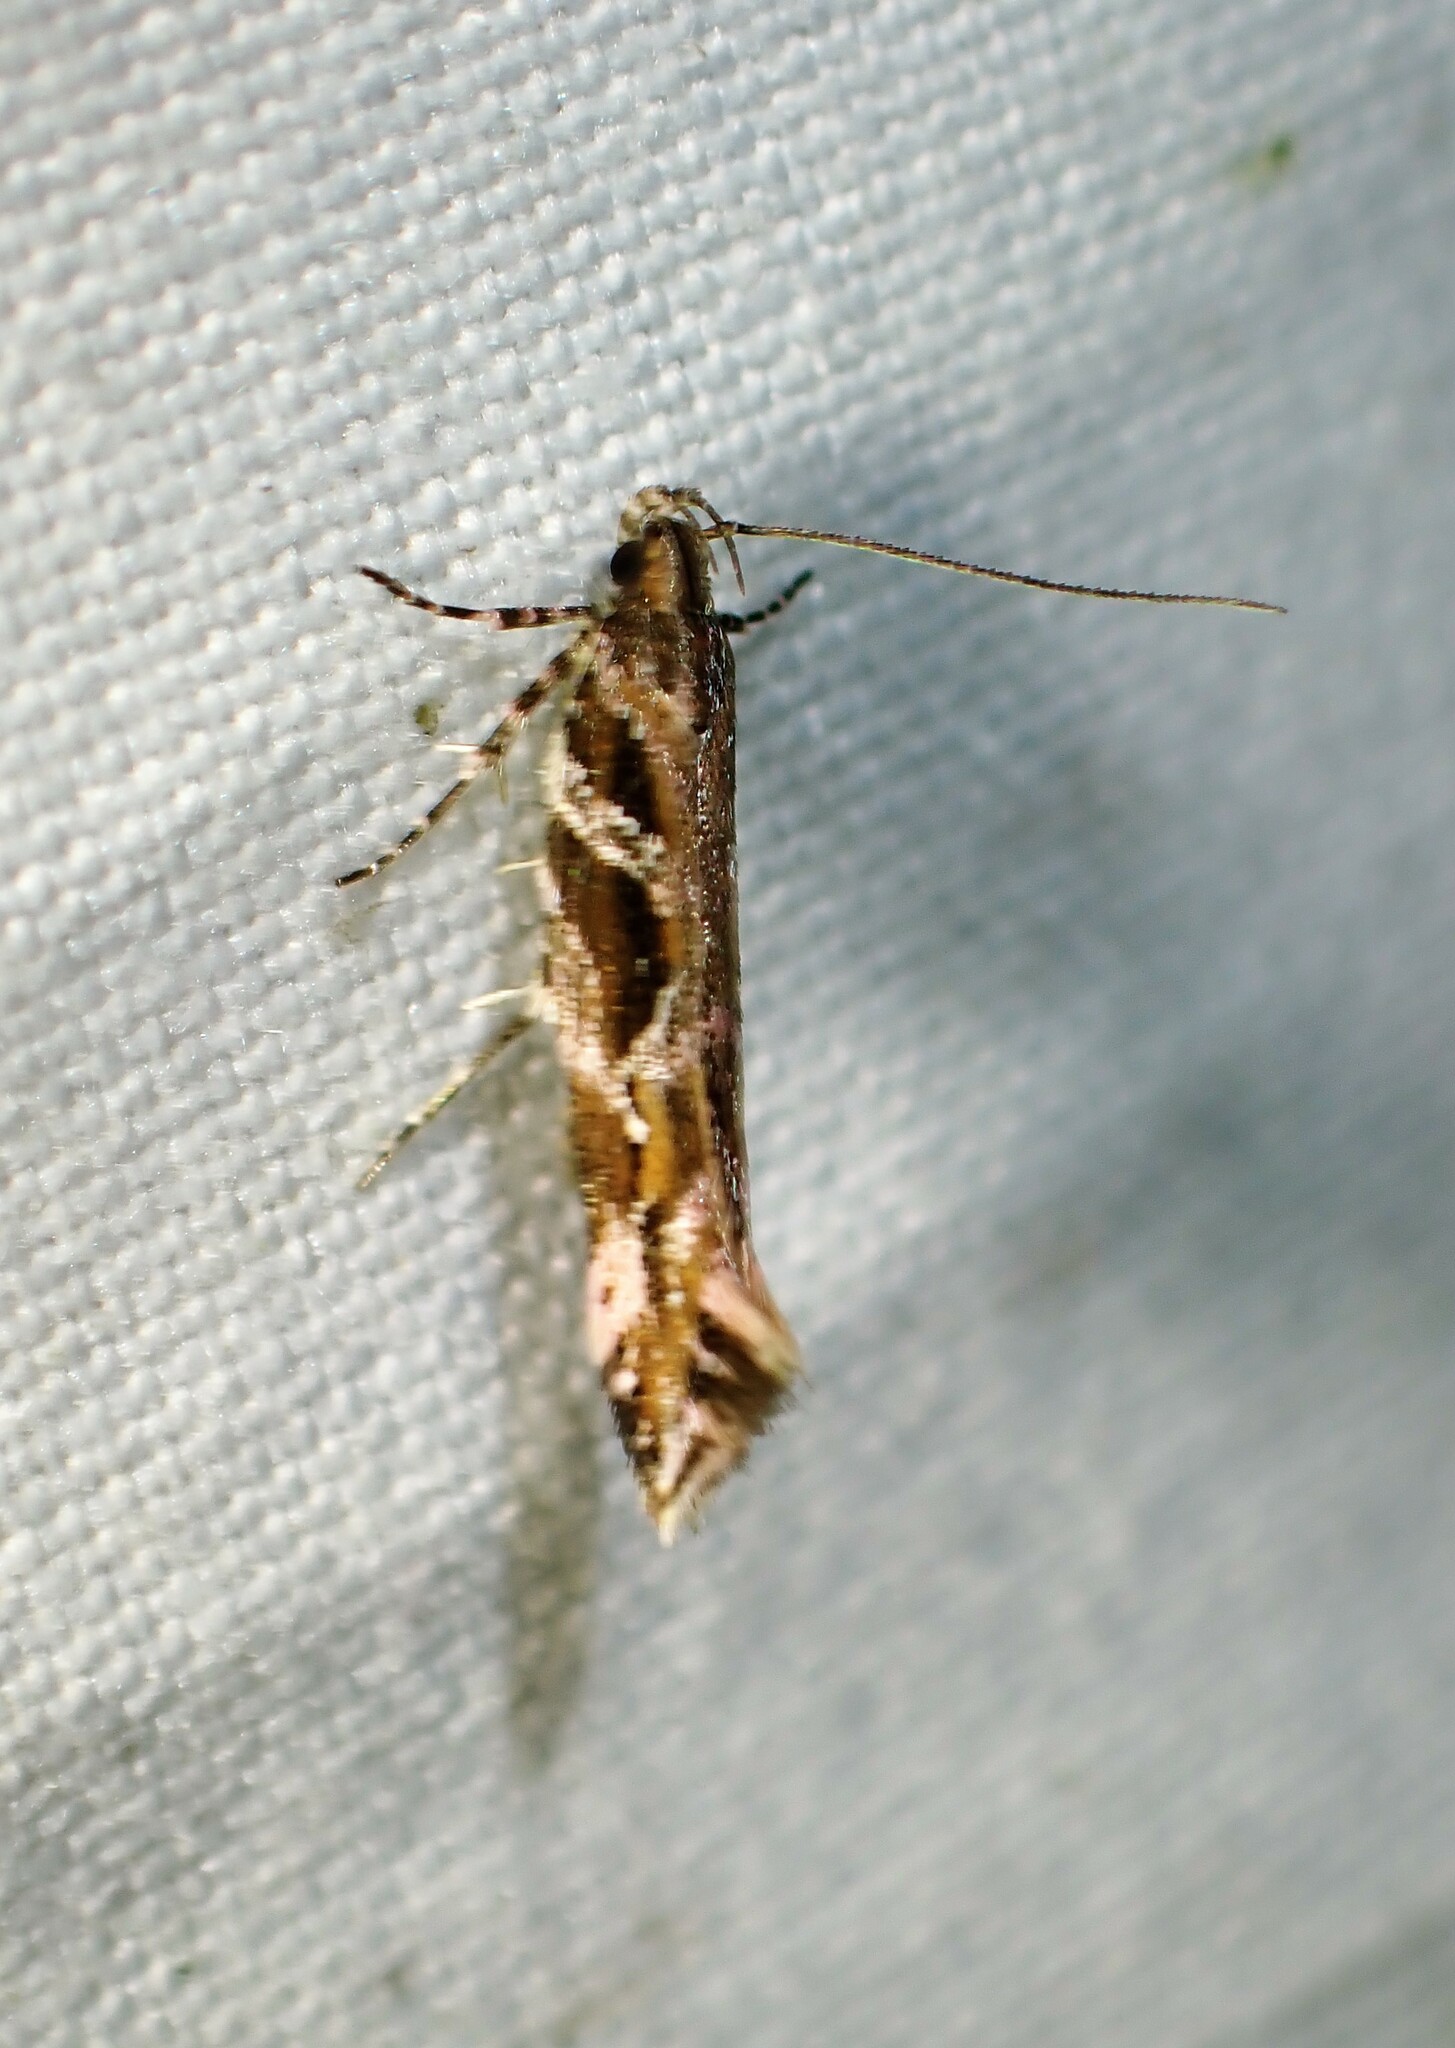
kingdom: Animalia
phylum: Arthropoda
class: Insecta
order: Lepidoptera
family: Gelechiidae
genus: Aristotelia
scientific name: Aristotelia fungivorella
